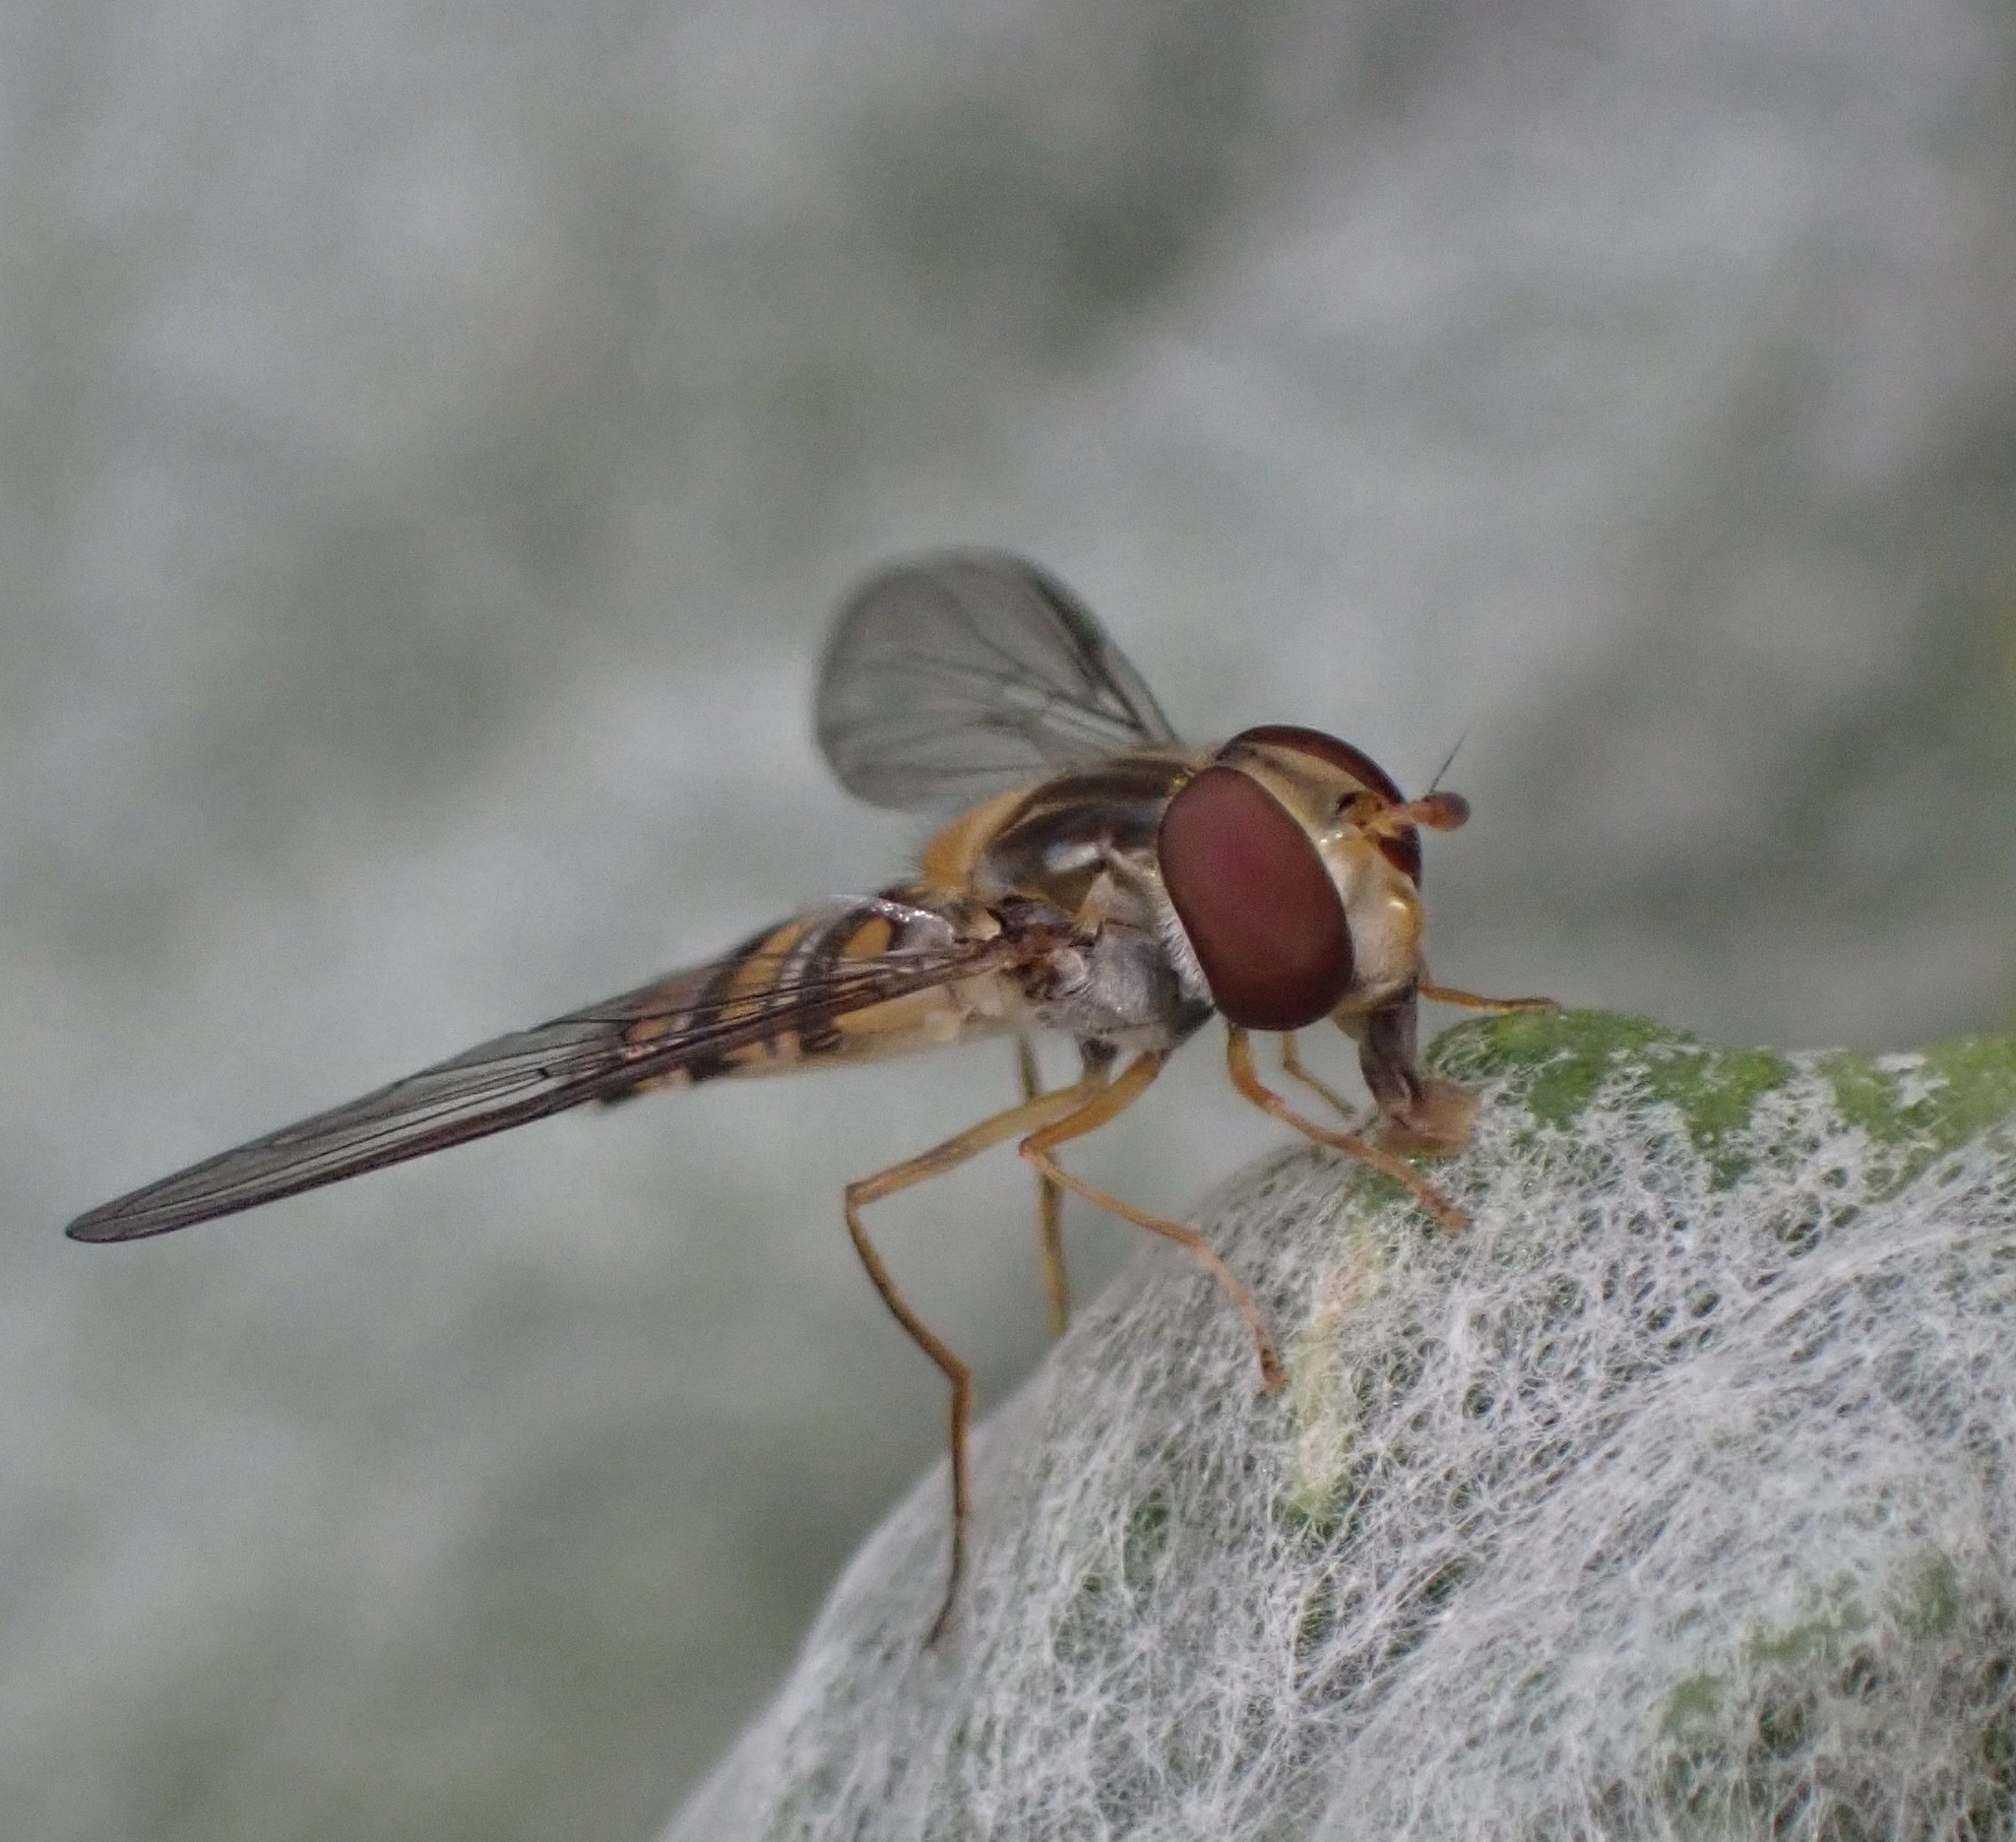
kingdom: Animalia
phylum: Arthropoda
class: Insecta
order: Diptera
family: Syrphidae
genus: Episyrphus
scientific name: Episyrphus balteatus
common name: Marmalade hoverfly
